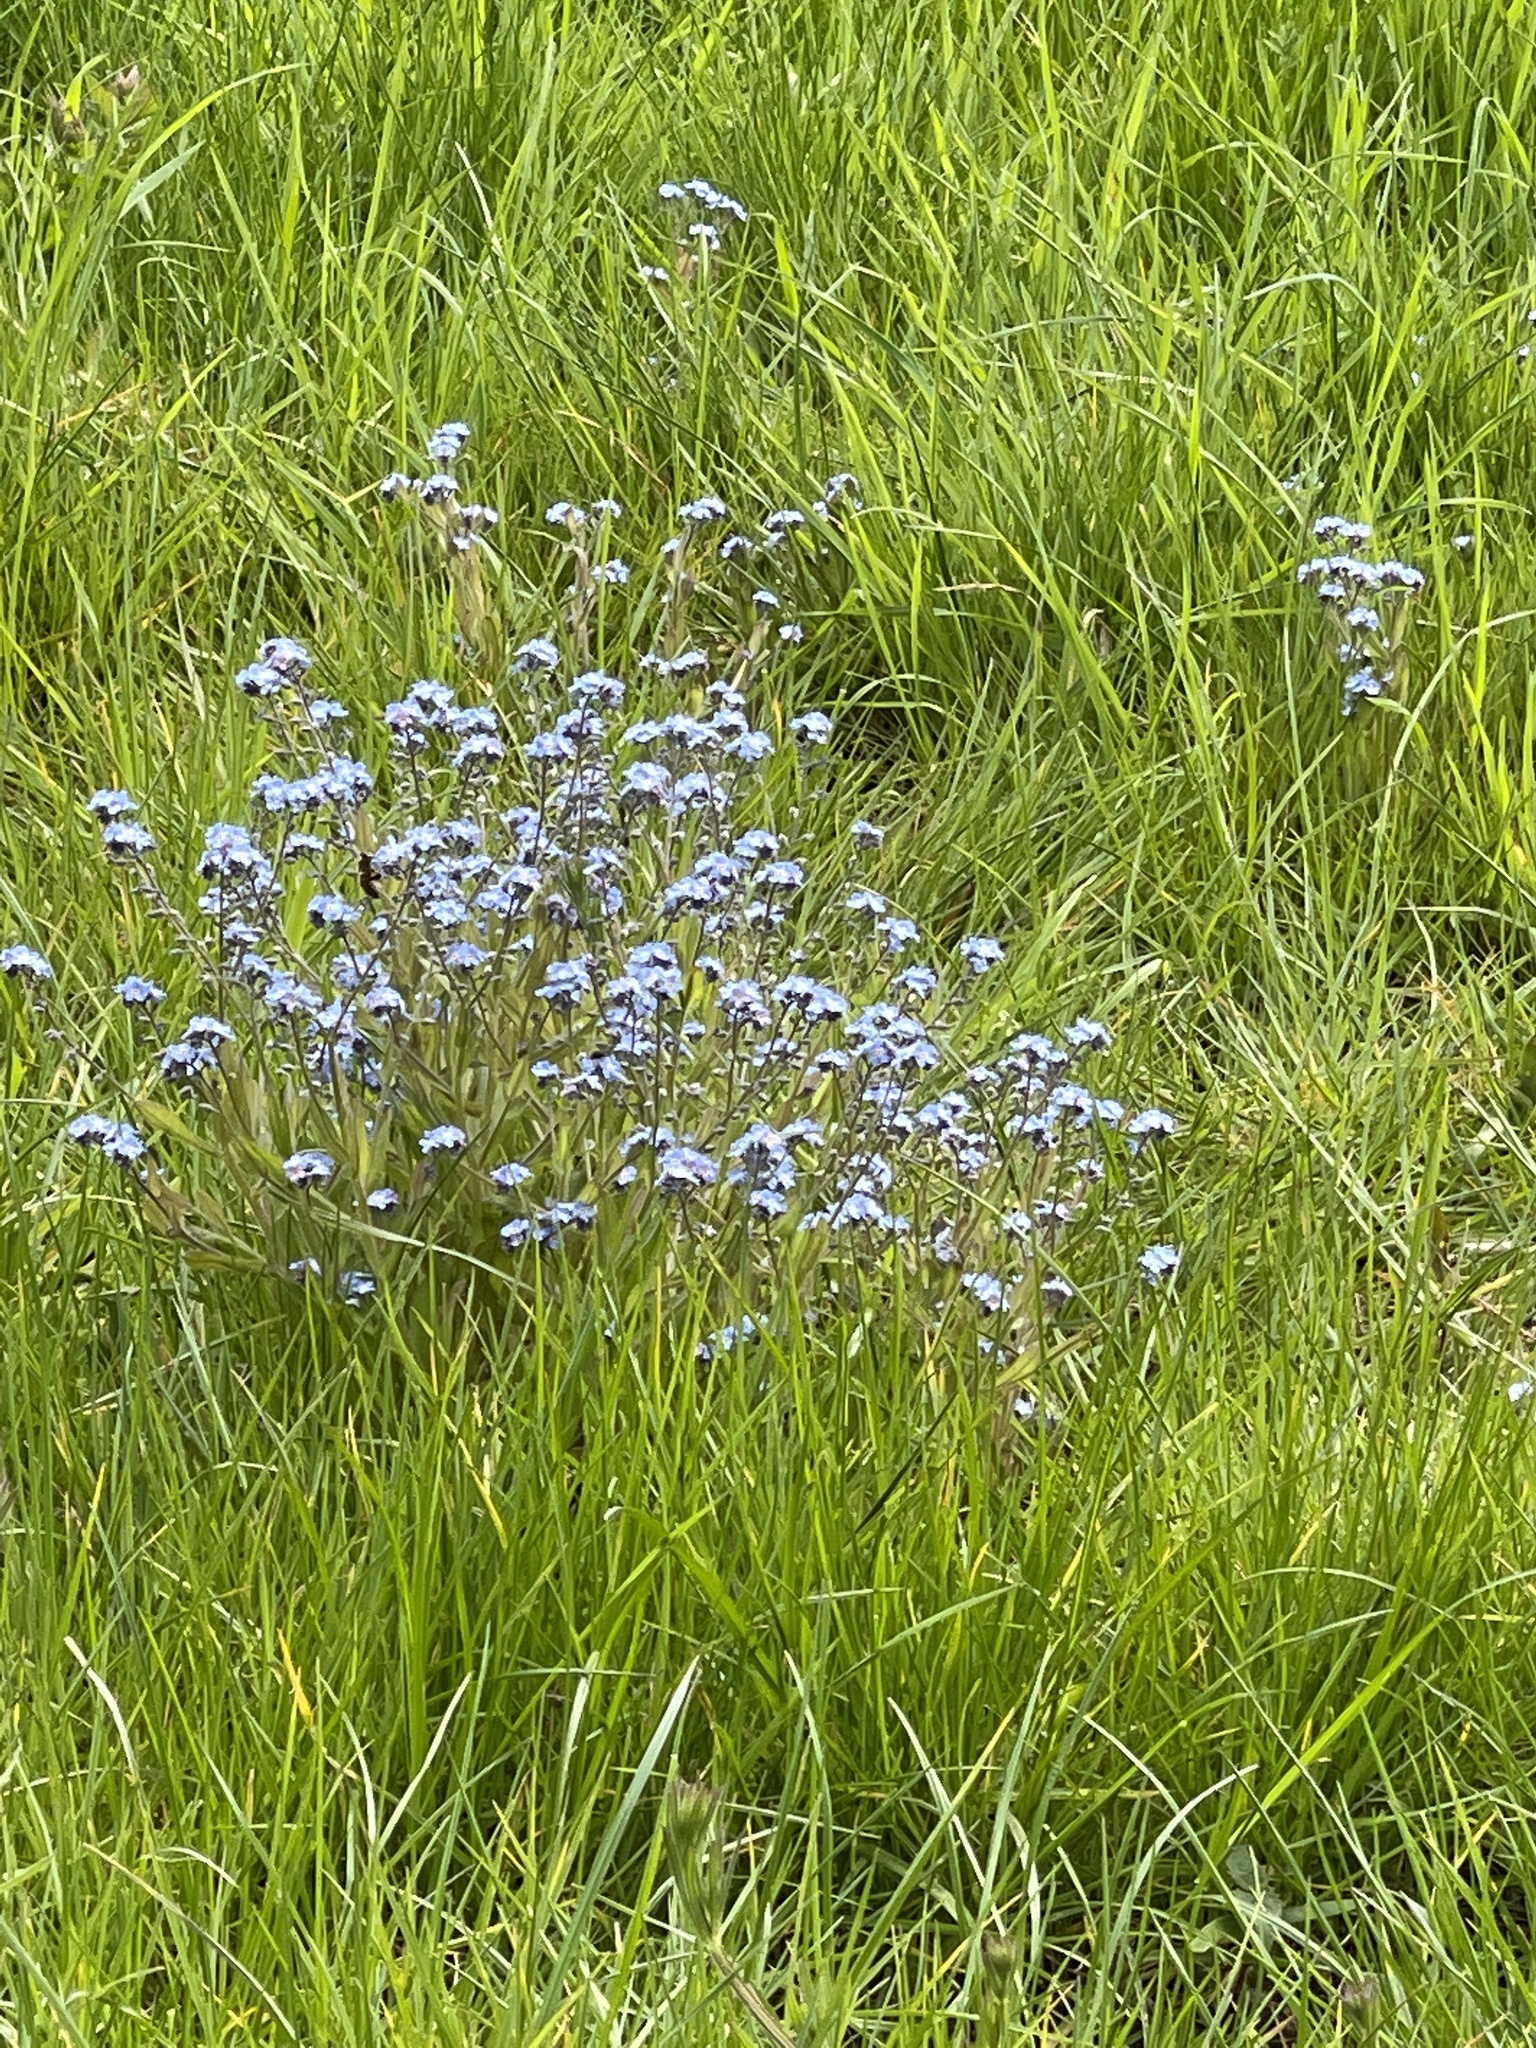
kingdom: Plantae
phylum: Tracheophyta
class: Magnoliopsida
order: Boraginales
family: Boraginaceae
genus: Myosotis
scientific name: Myosotis sylvatica
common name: Wood forget-me-not
